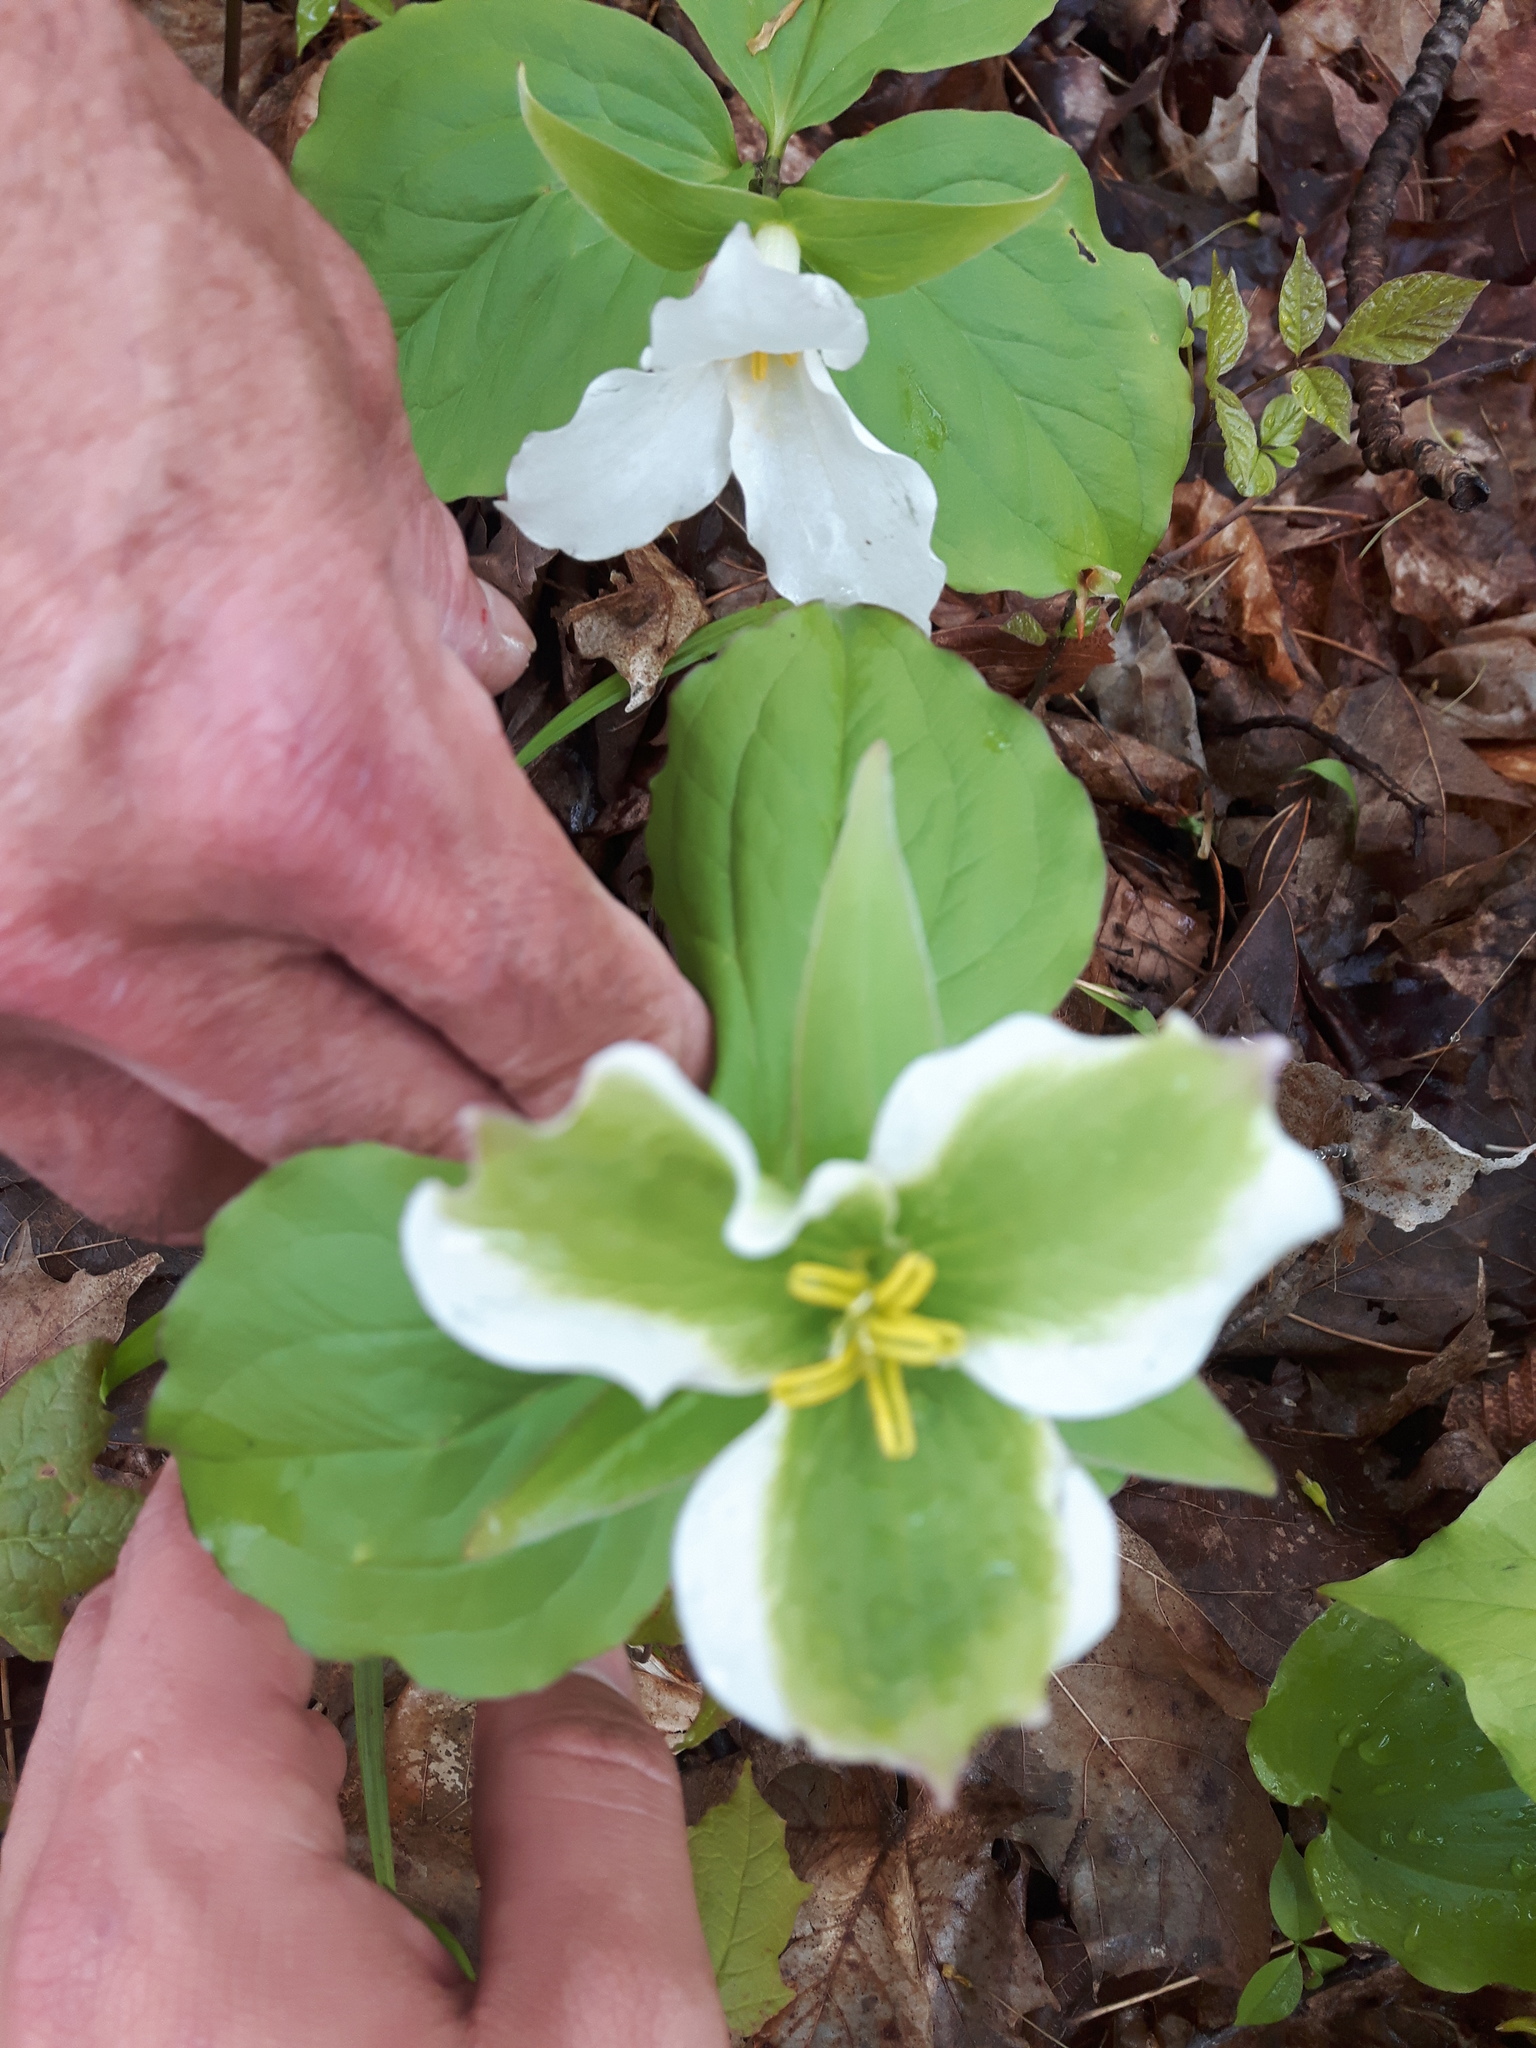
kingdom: Plantae
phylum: Tracheophyta
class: Liliopsida
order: Liliales
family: Melanthiaceae
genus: Trillium
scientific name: Trillium grandiflorum
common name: Great white trillium
